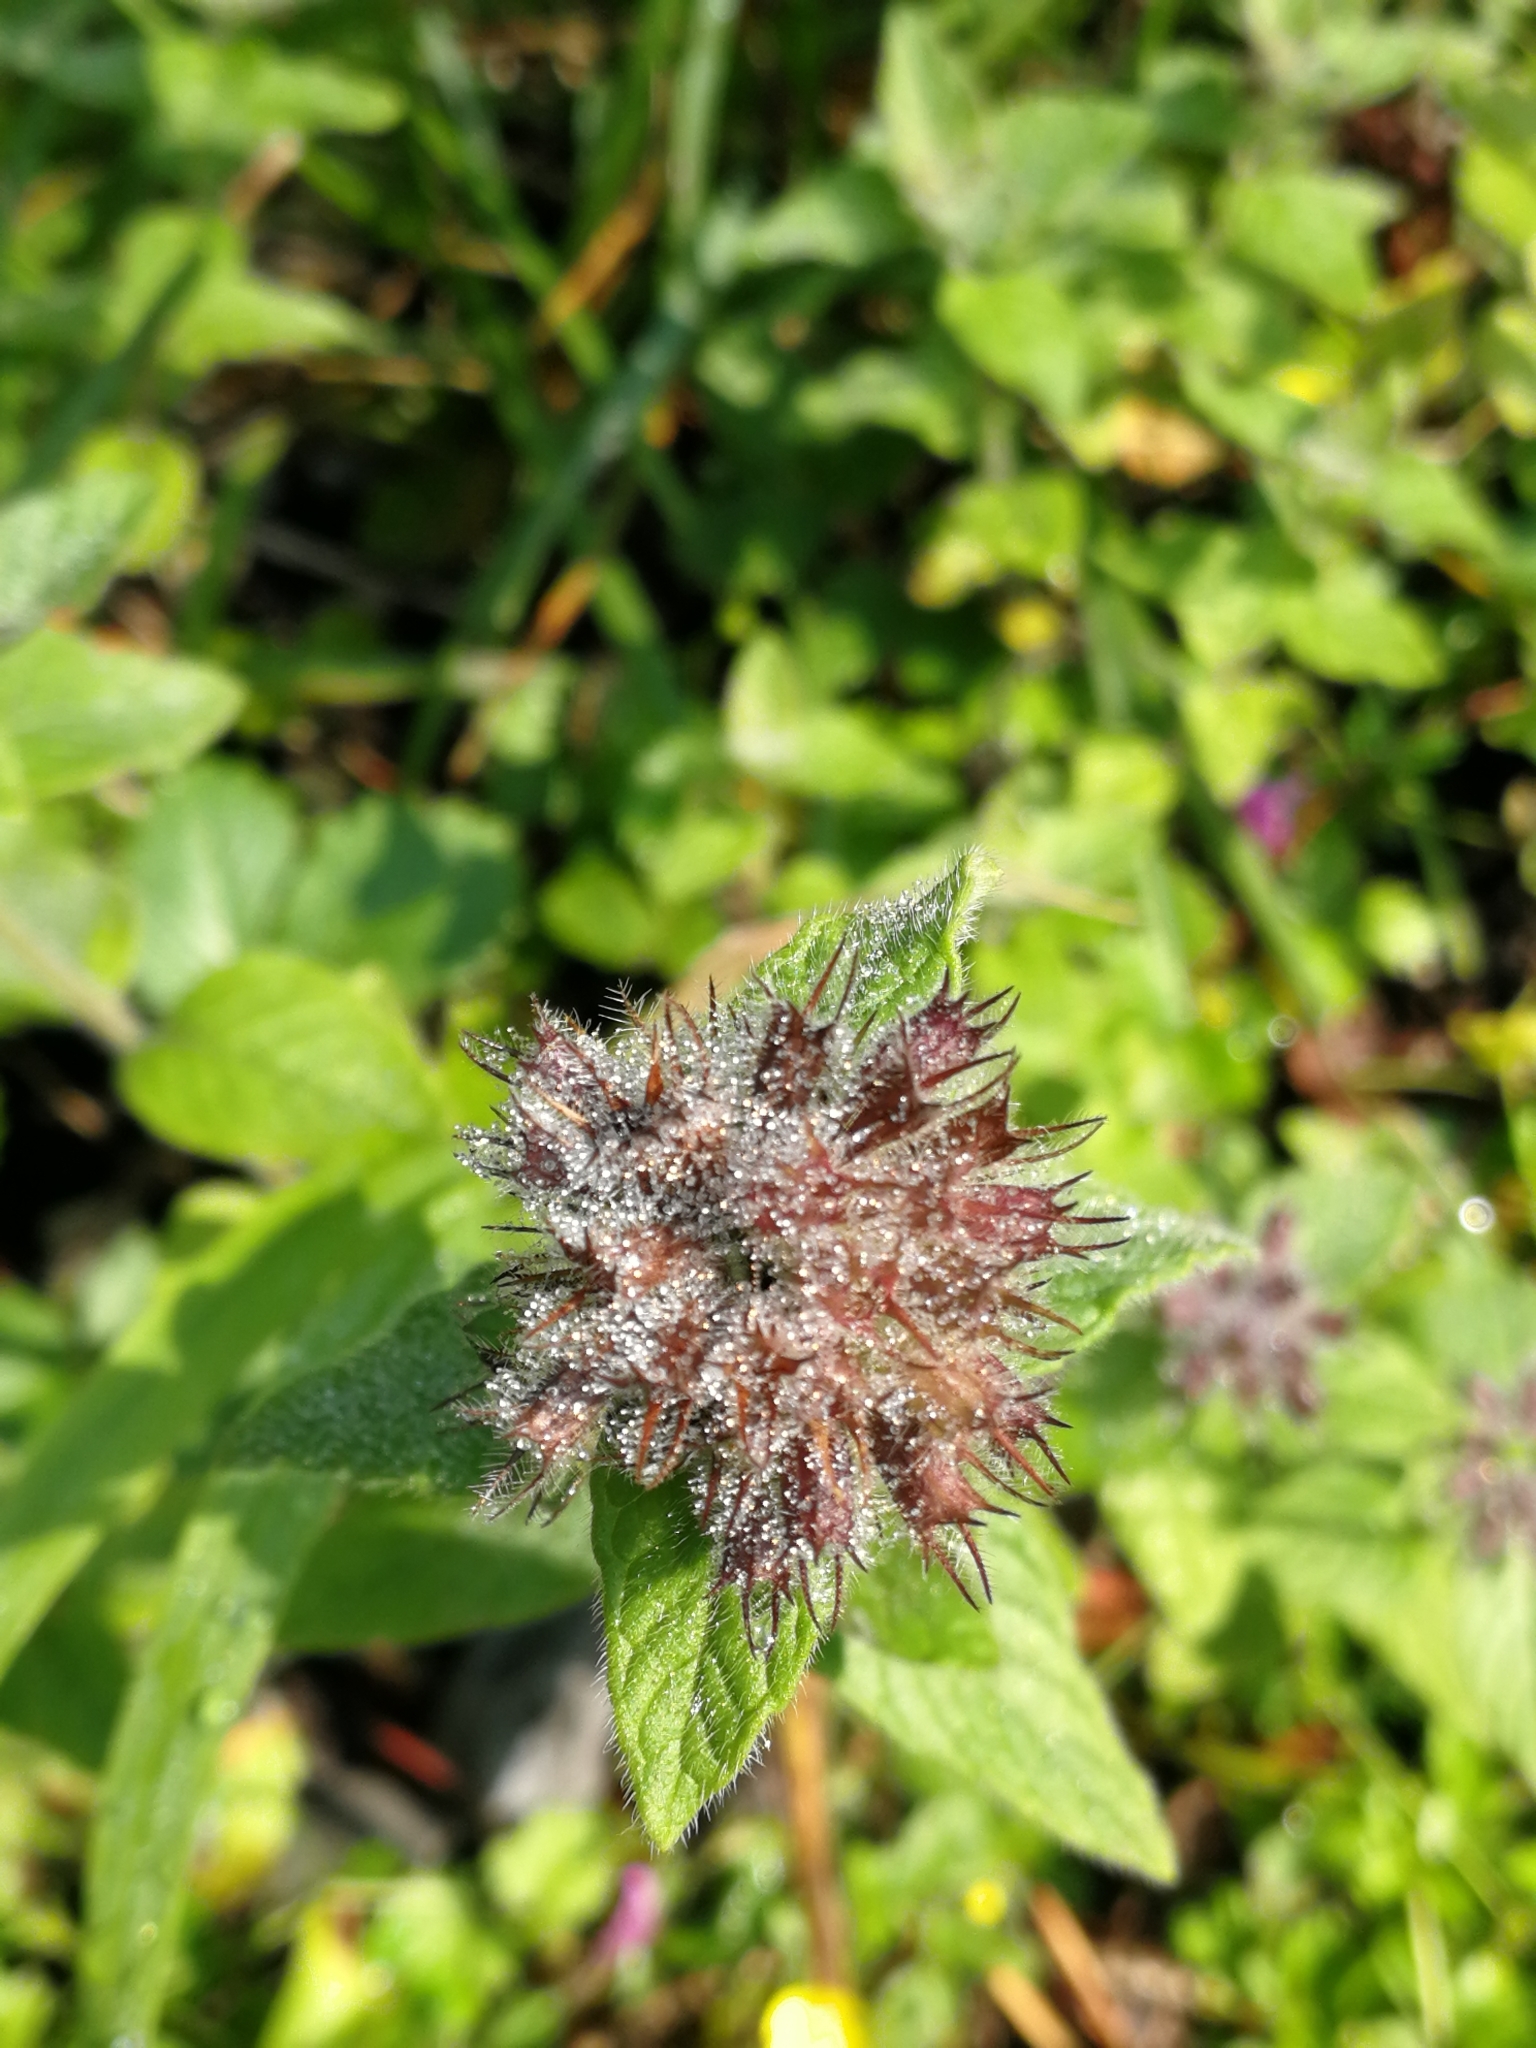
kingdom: Plantae
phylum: Tracheophyta
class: Magnoliopsida
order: Lamiales
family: Lamiaceae
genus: Clinopodium
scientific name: Clinopodium vulgare
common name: Wild basil
